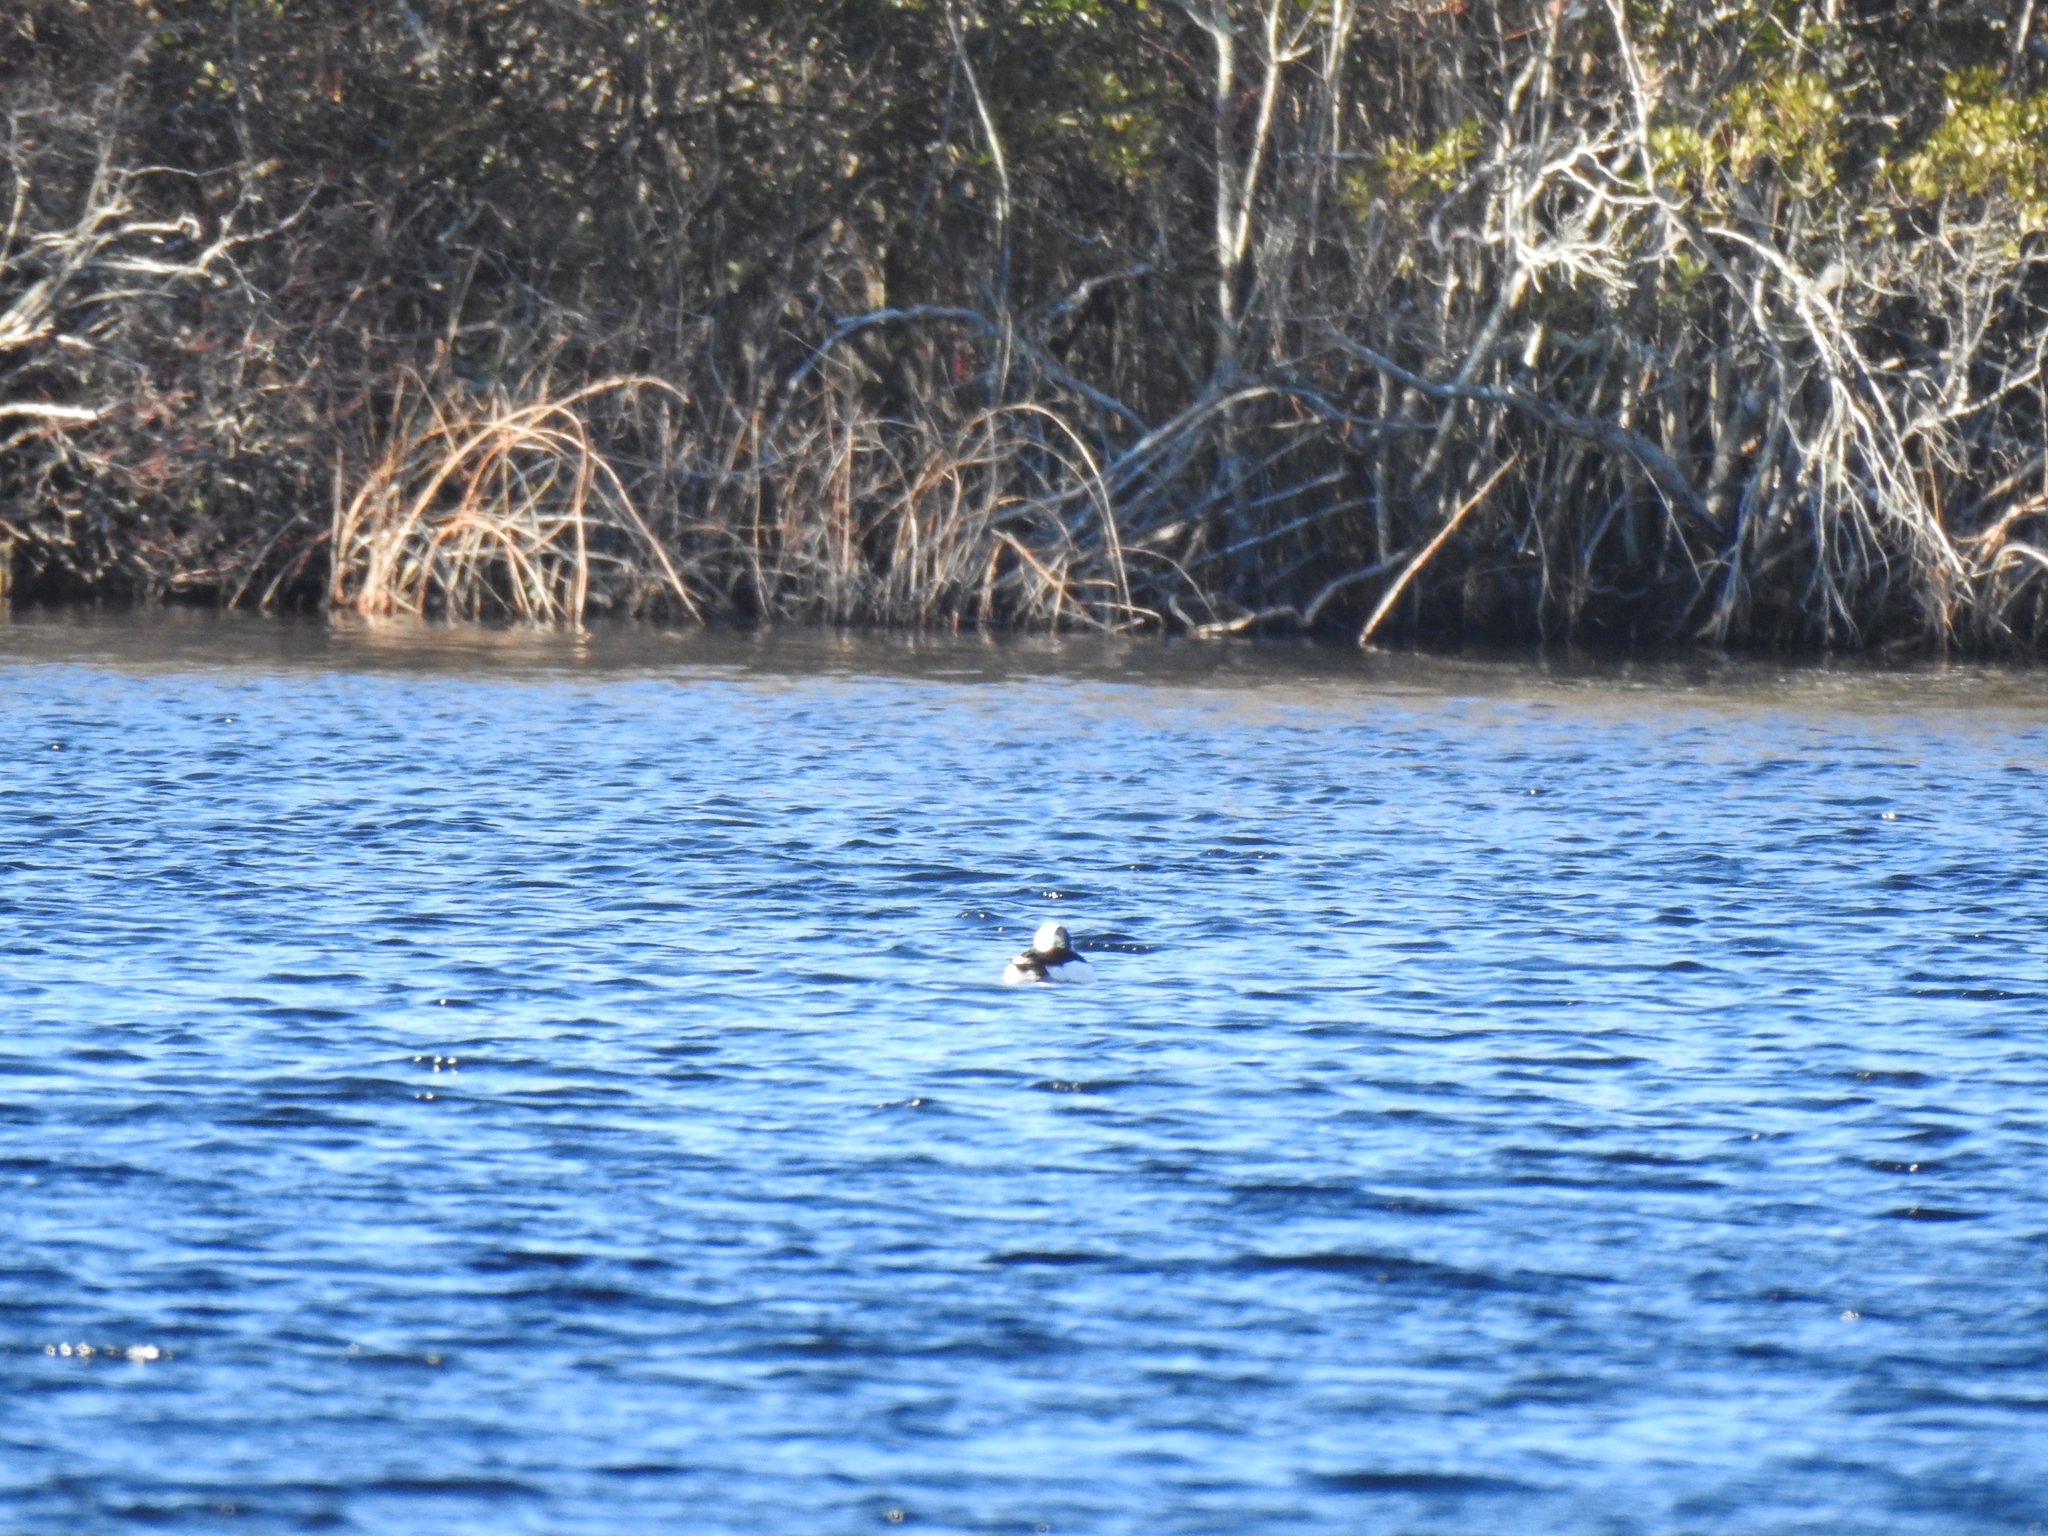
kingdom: Animalia
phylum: Chordata
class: Aves
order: Anseriformes
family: Anatidae
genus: Bucephala
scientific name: Bucephala albeola
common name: Bufflehead
